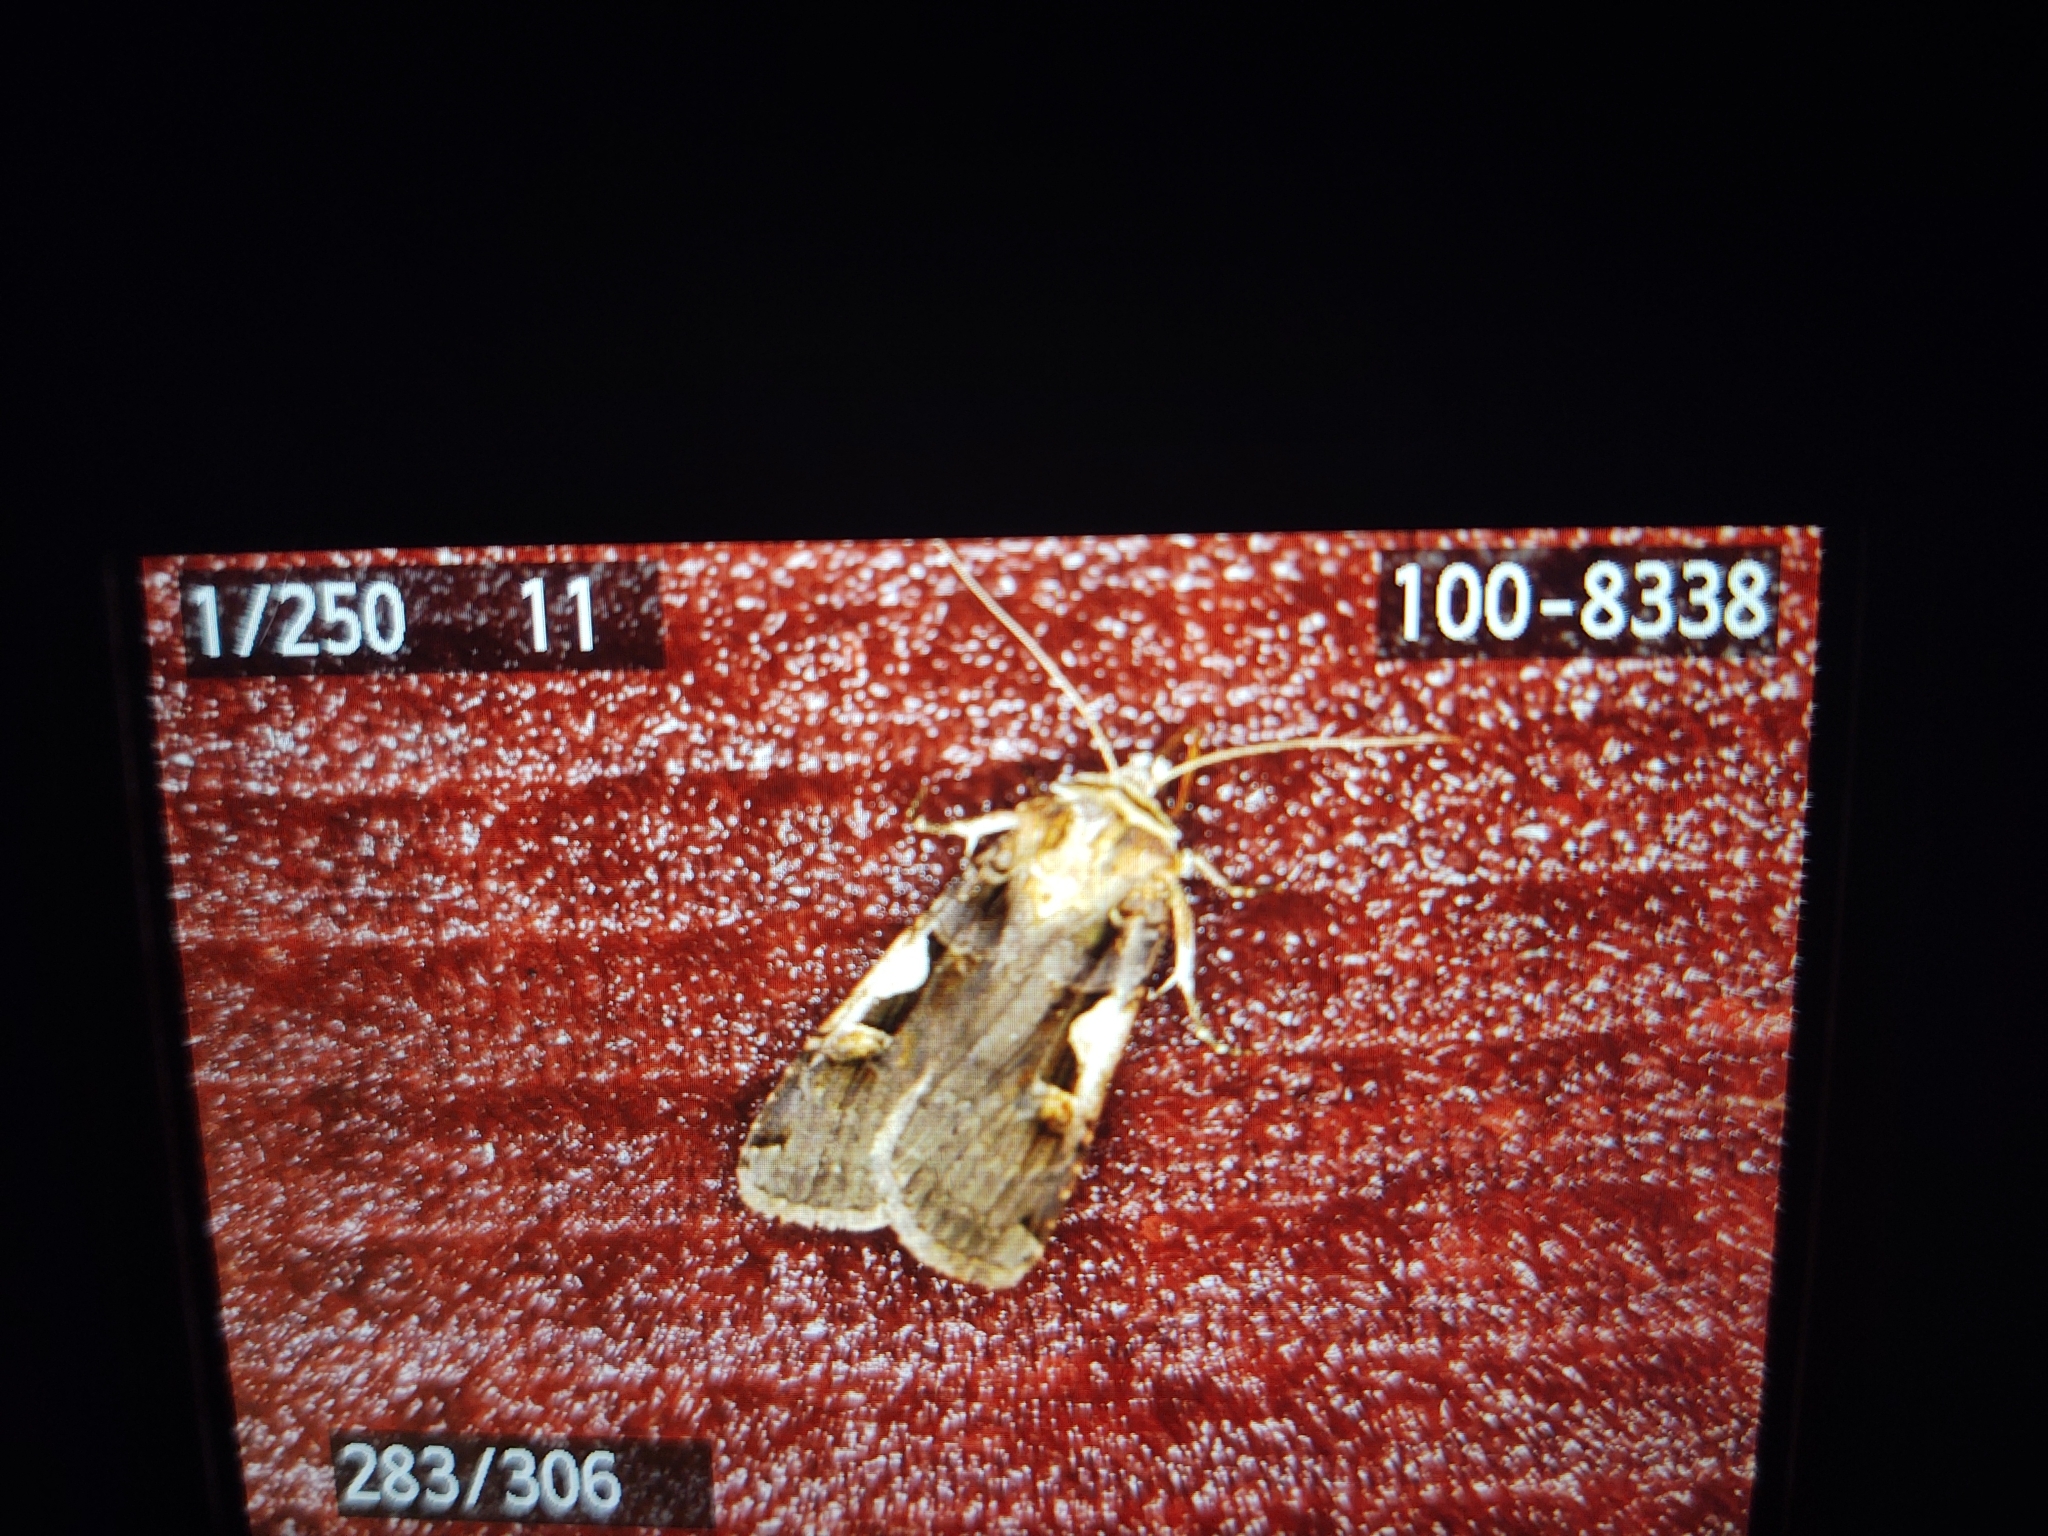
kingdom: Animalia
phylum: Arthropoda
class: Insecta
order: Lepidoptera
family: Noctuidae
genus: Xestia
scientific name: Xestia c-nigrum
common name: Setaceous hebrew character
